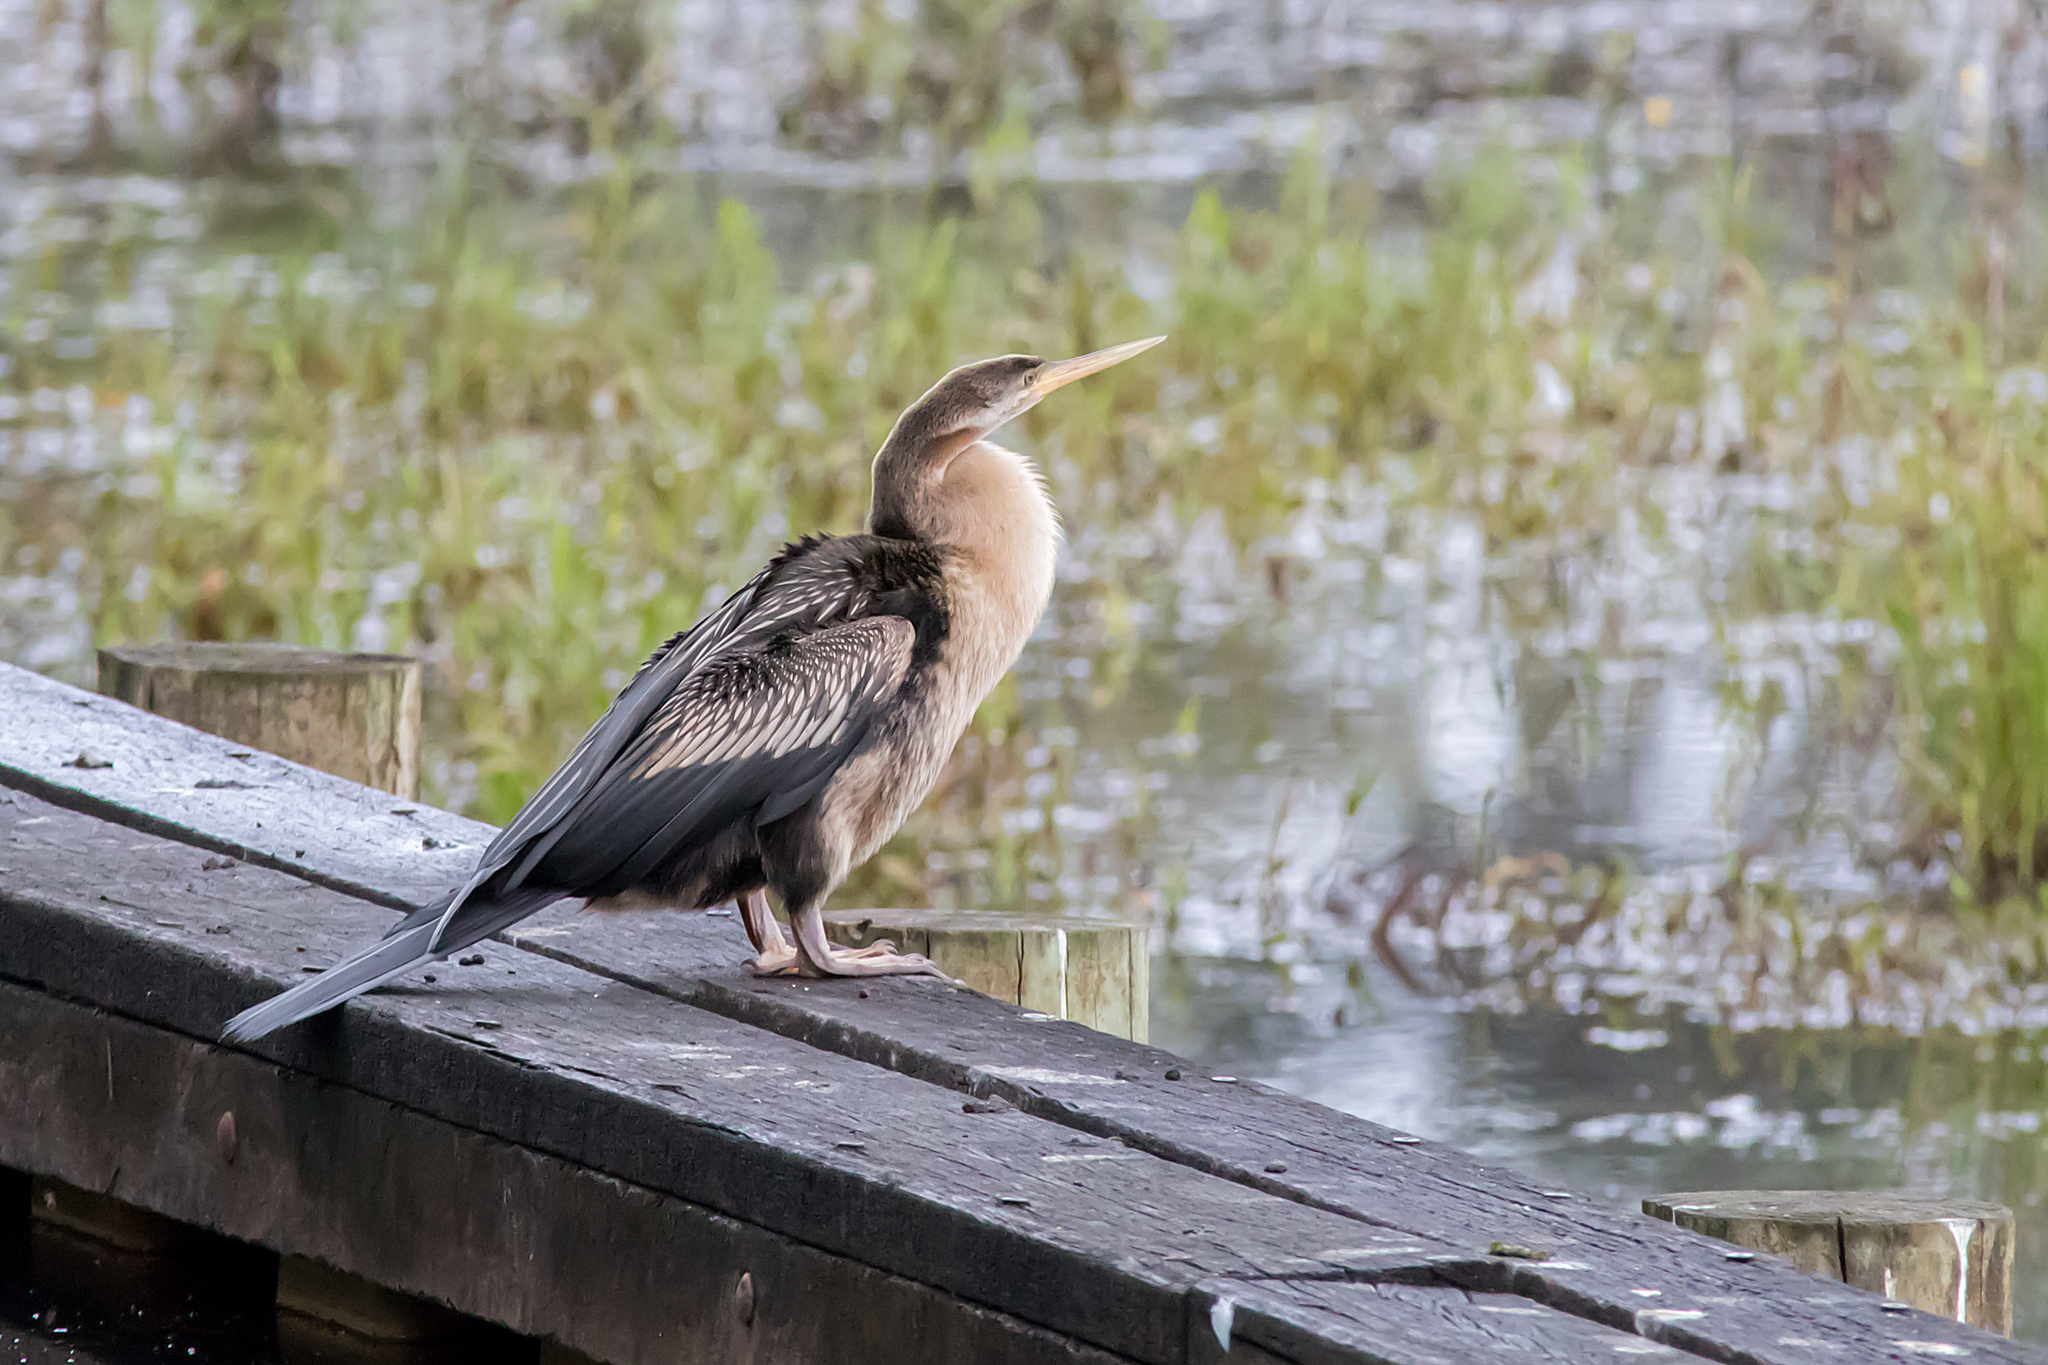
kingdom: Animalia
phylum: Chordata
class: Aves
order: Suliformes
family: Anhingidae
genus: Anhinga
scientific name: Anhinga novaehollandiae
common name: Australasian darter
